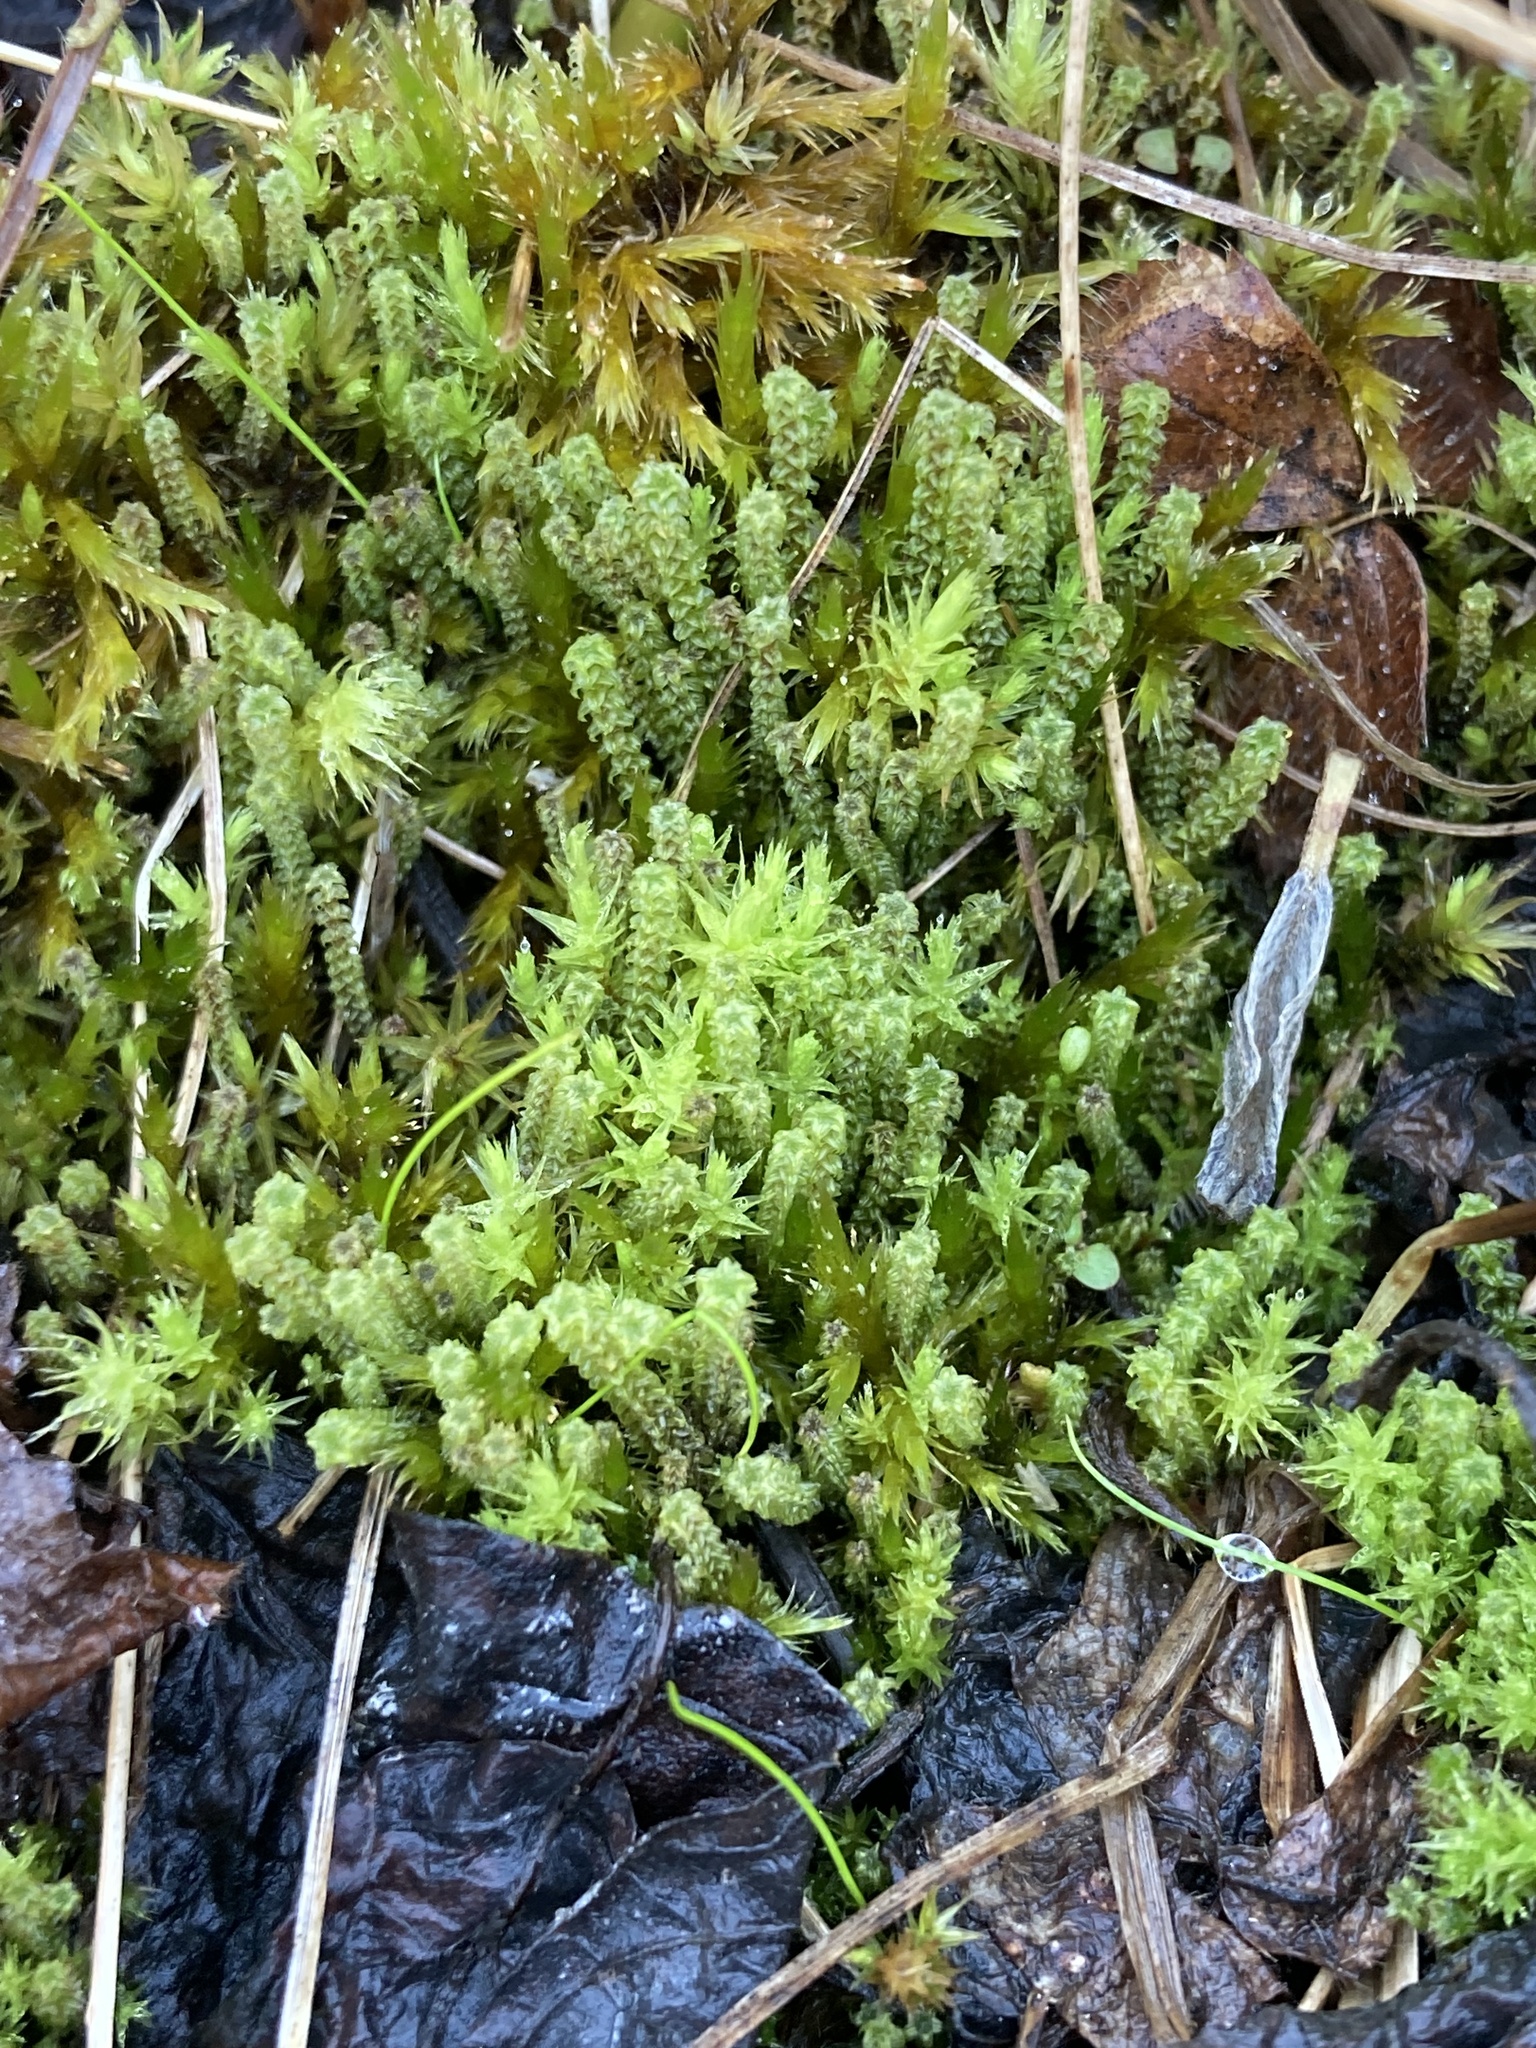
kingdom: Plantae
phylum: Bryophyta
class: Bryopsida
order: Splachnales
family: Meesiaceae
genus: Paludella
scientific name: Paludella squarrosa
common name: Tufted fen moss
